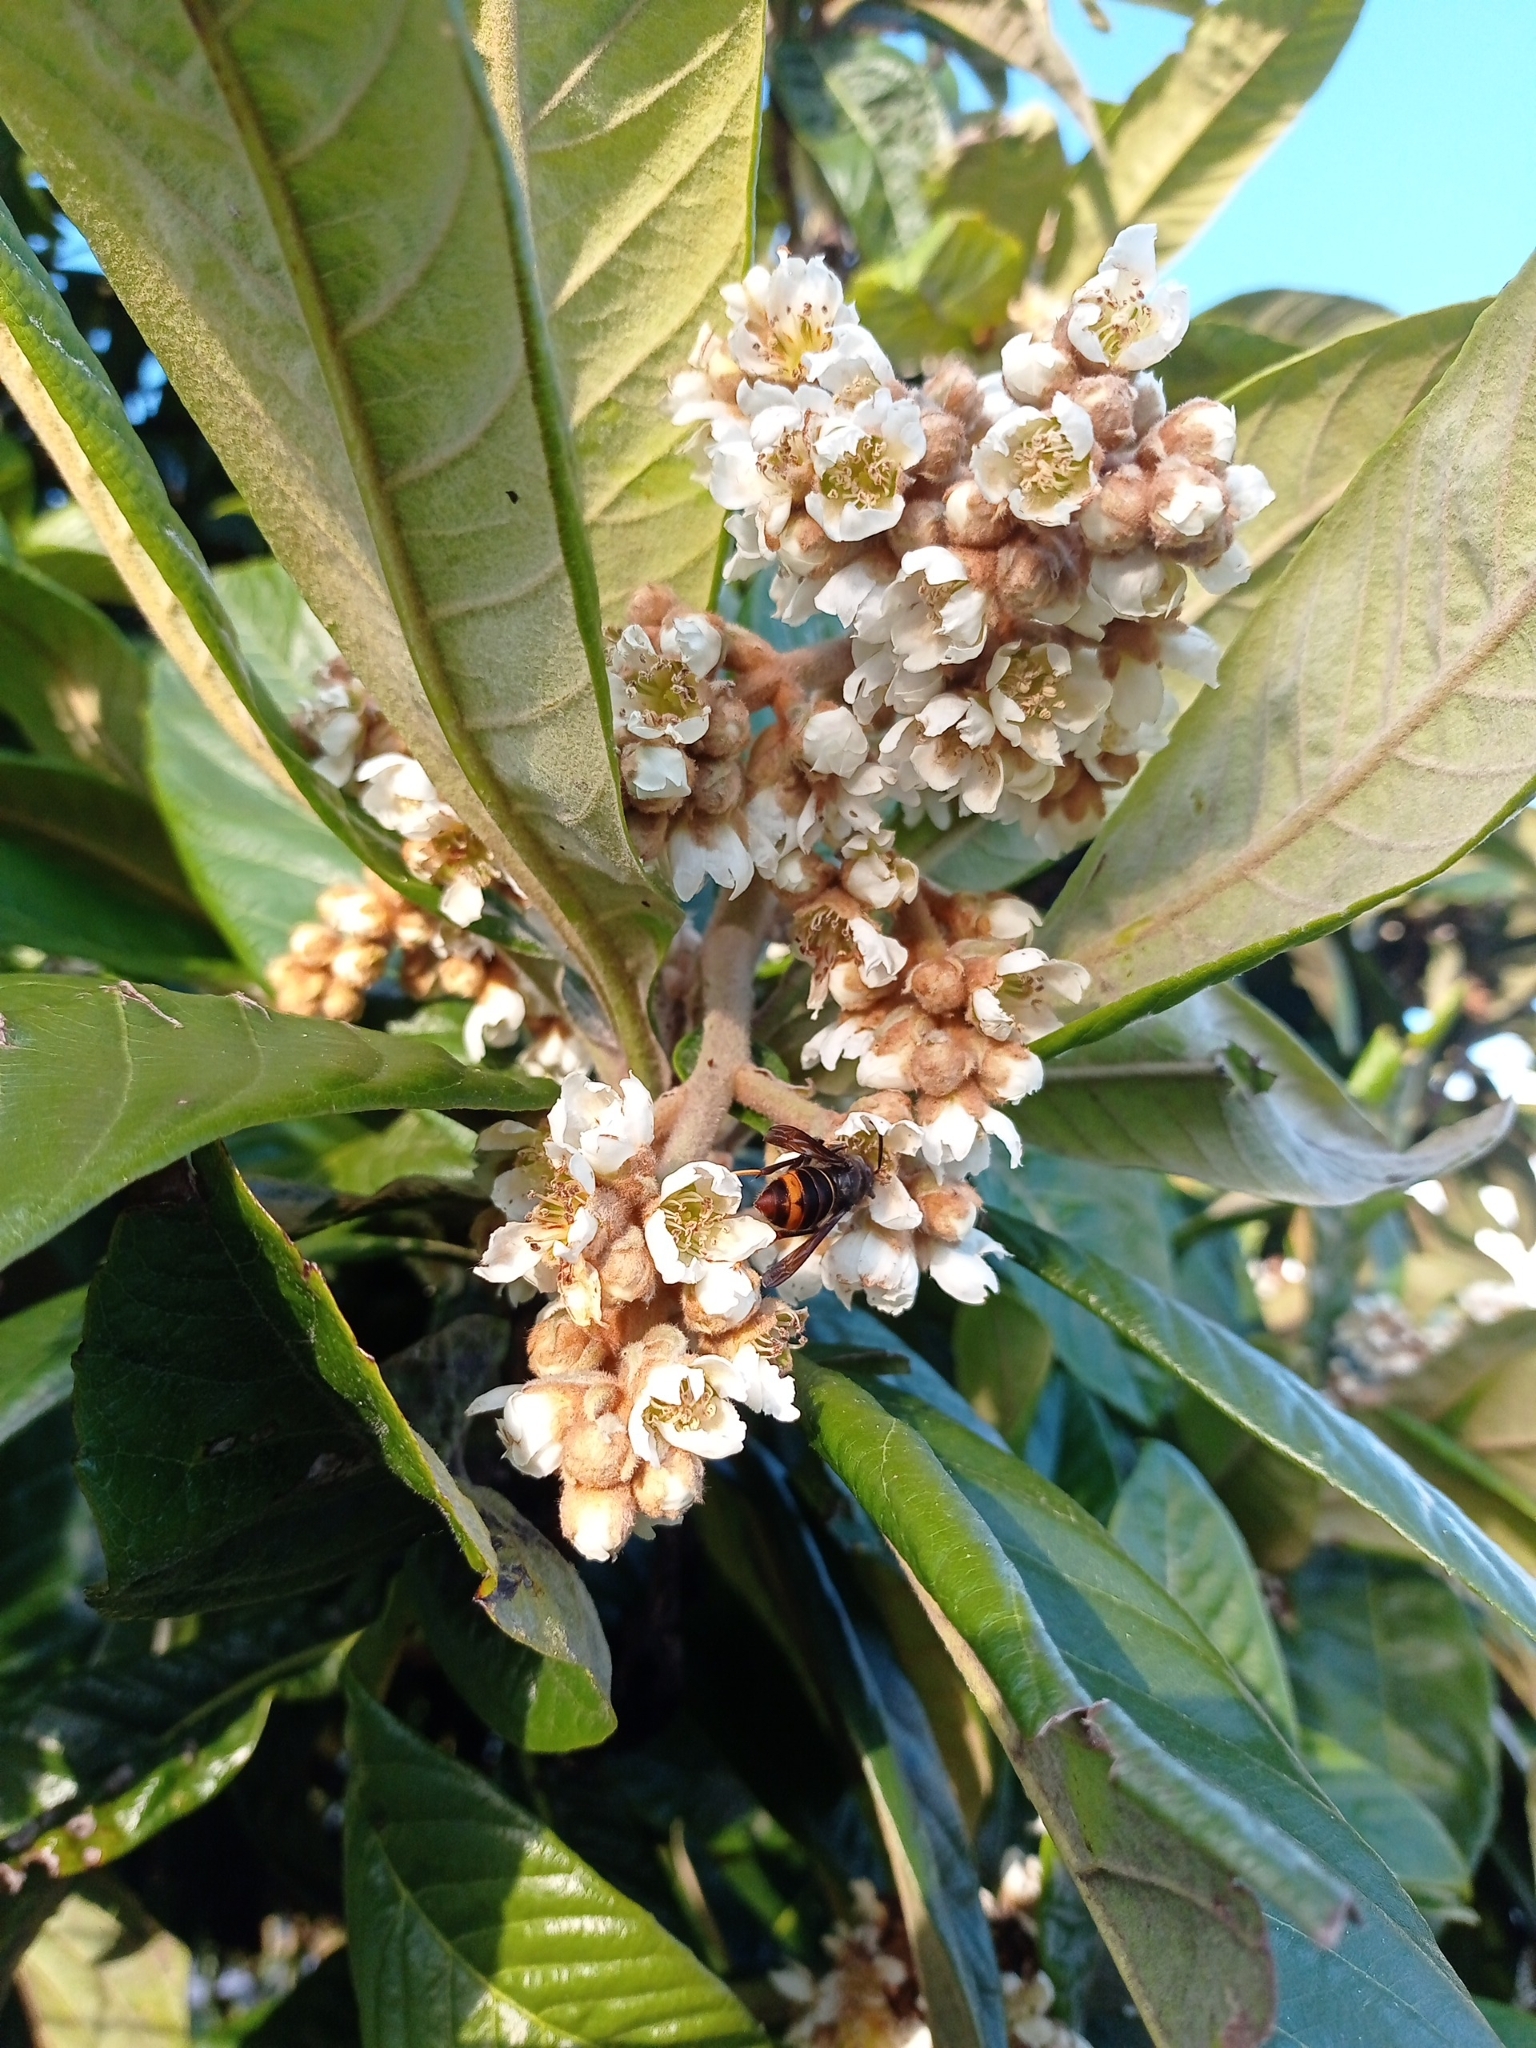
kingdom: Animalia
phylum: Arthropoda
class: Insecta
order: Hymenoptera
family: Vespidae
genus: Vespa
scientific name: Vespa velutina
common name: Asian hornet
